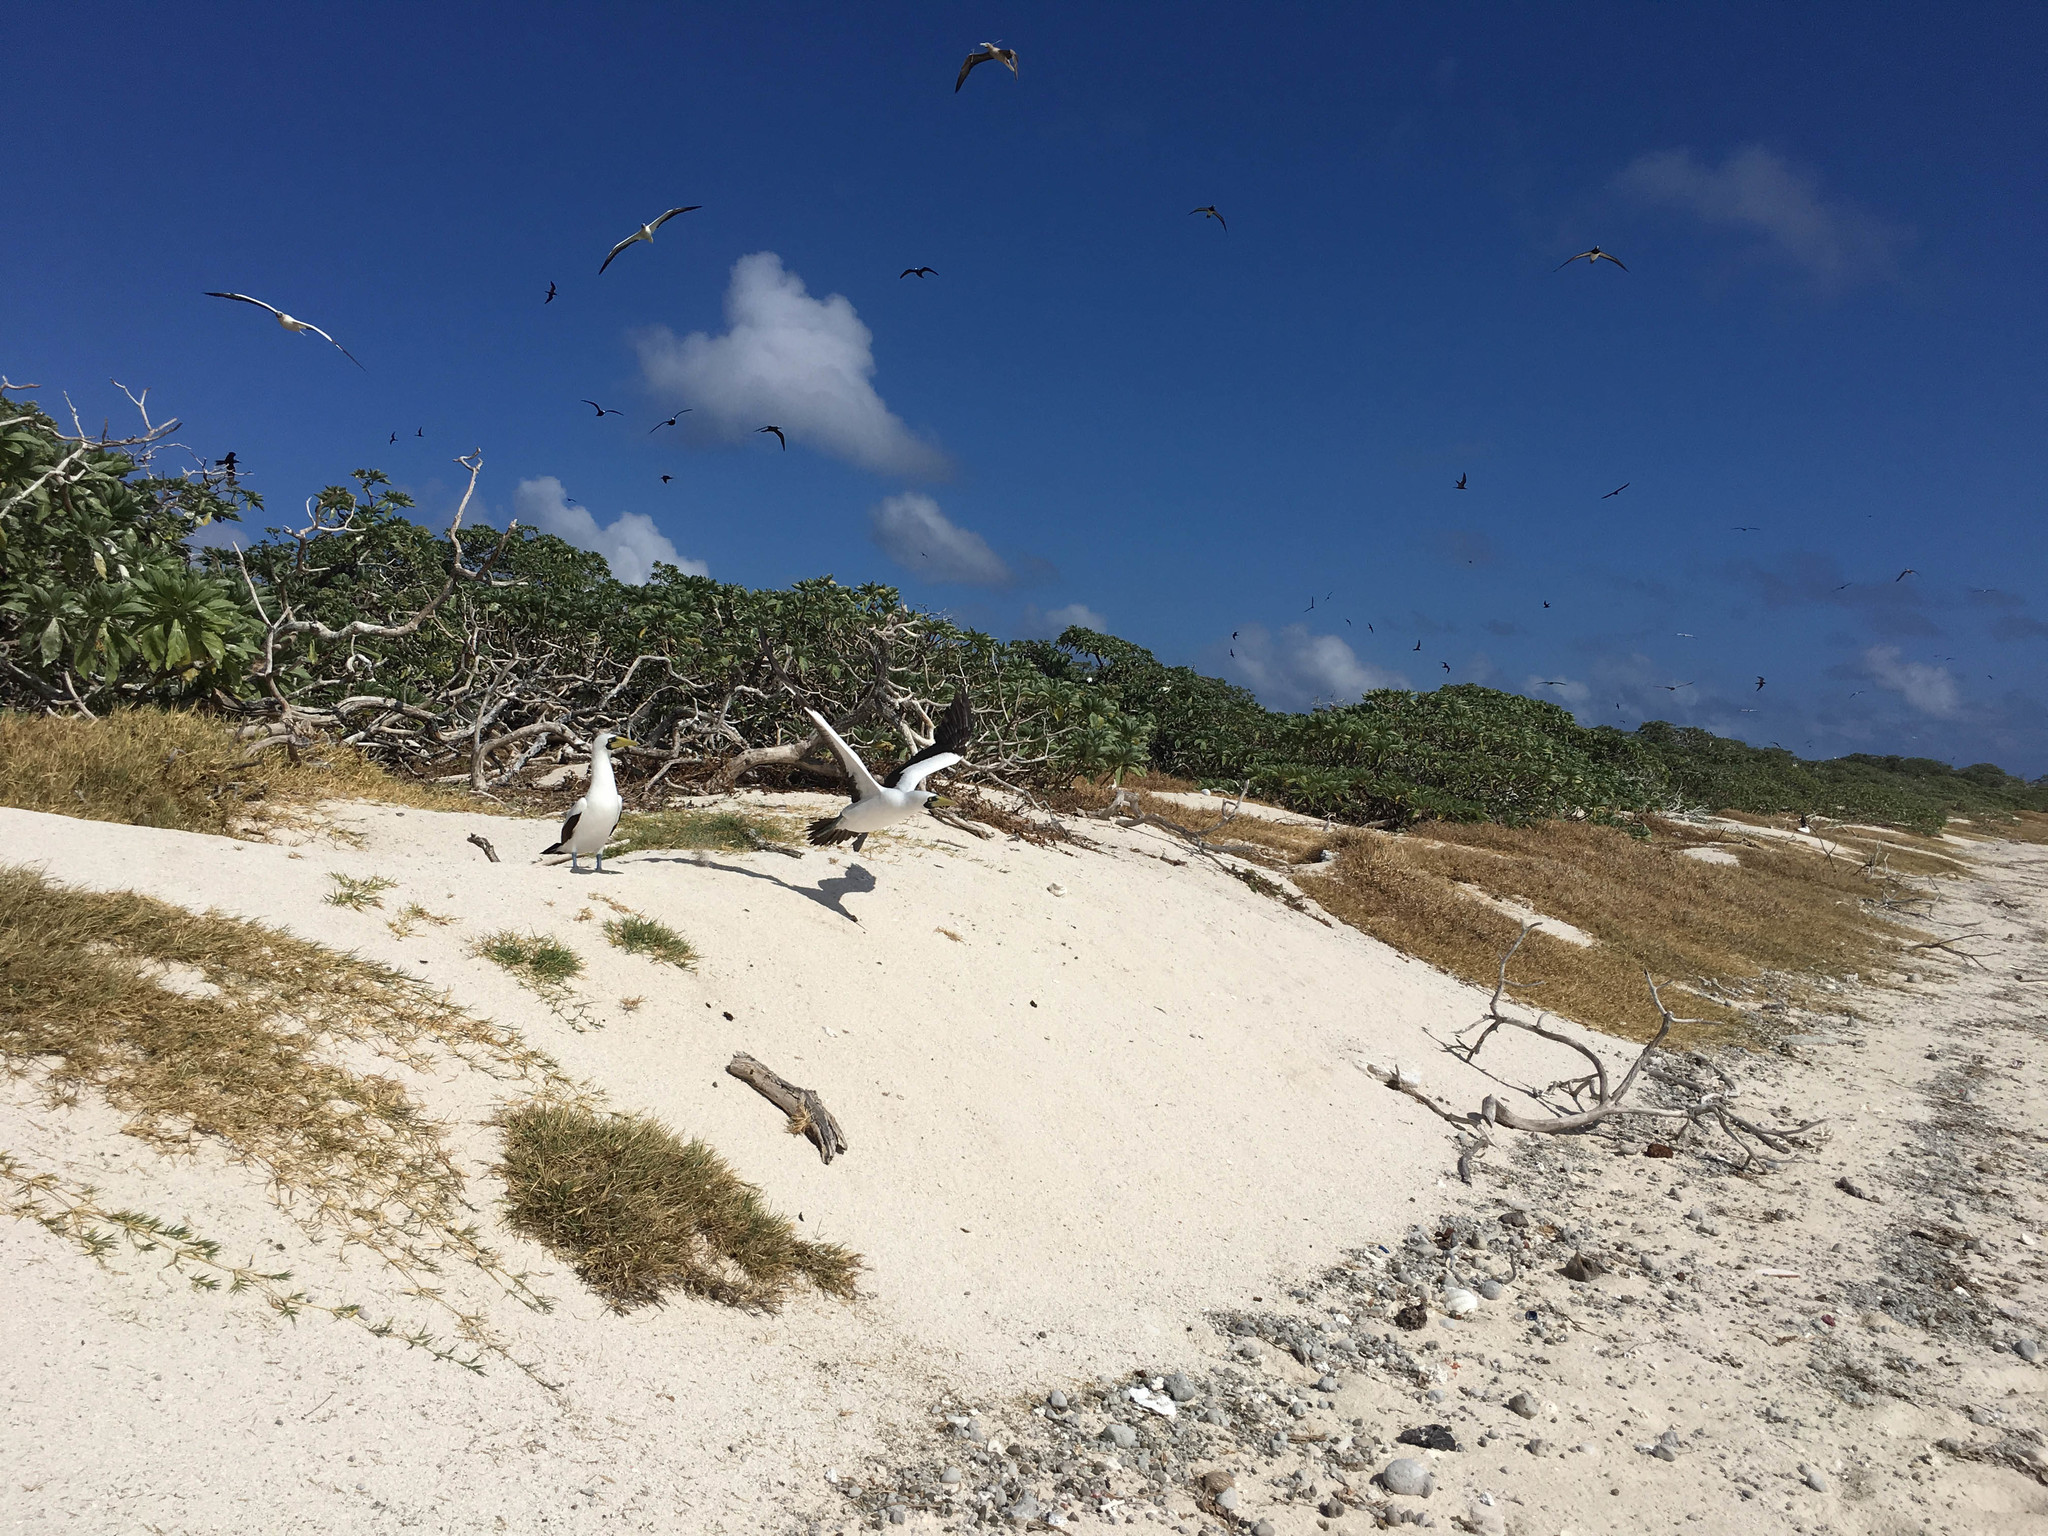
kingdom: Animalia
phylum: Chordata
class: Aves
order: Suliformes
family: Sulidae
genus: Sula
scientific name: Sula dactylatra
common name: Masked booby
